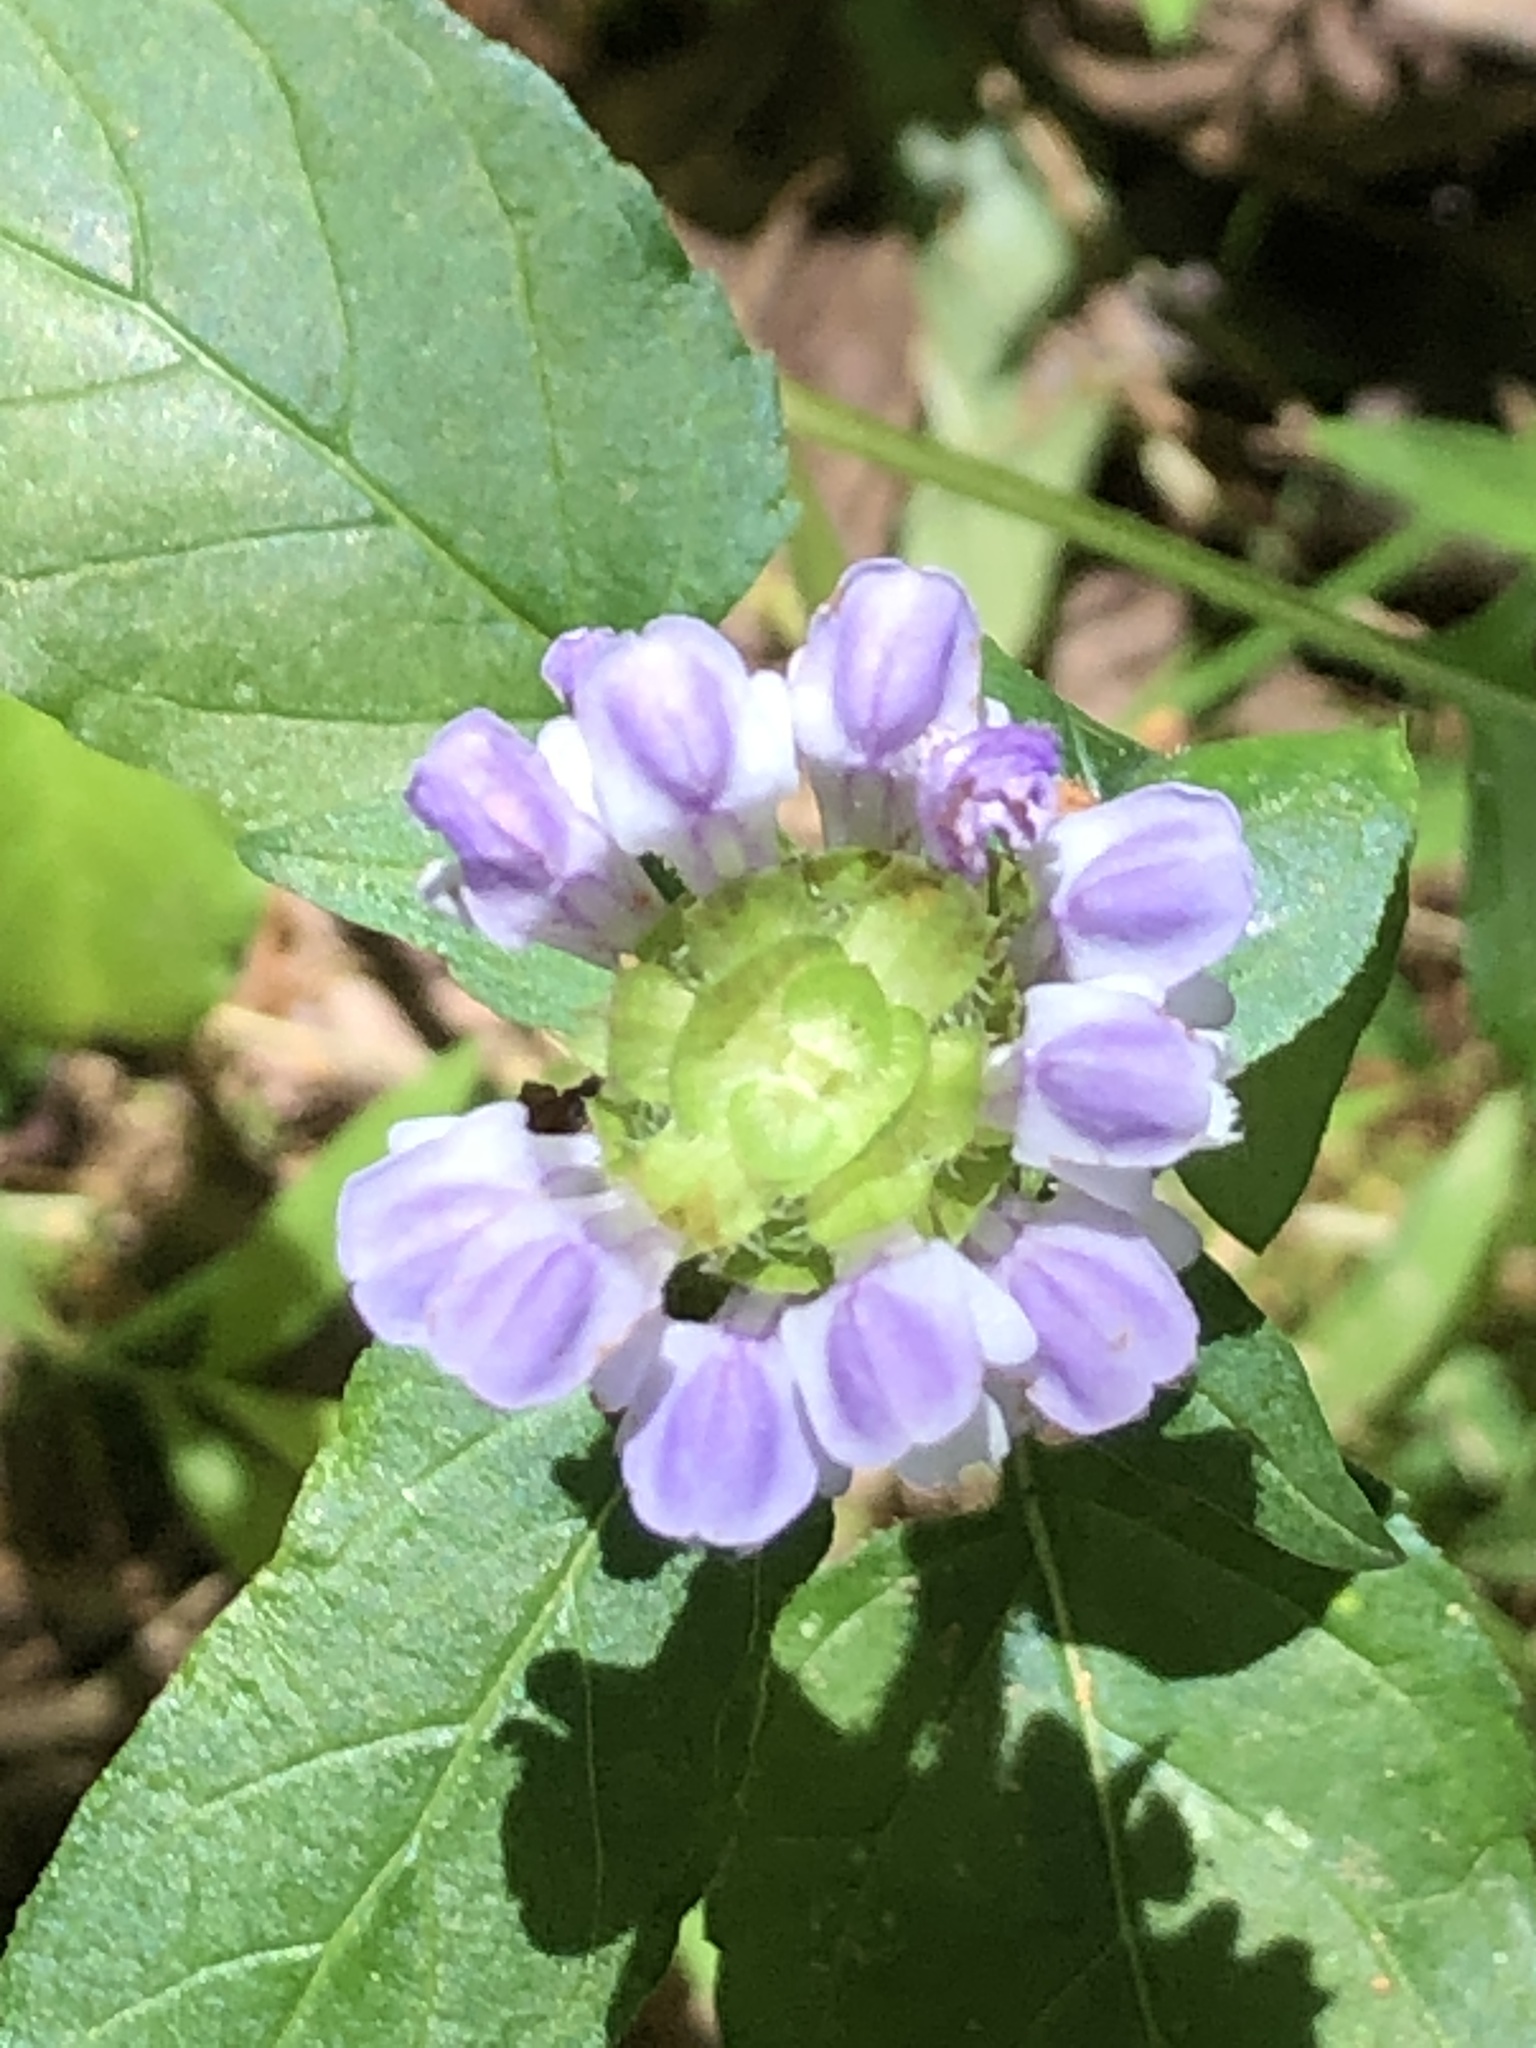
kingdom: Plantae
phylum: Tracheophyta
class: Magnoliopsida
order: Lamiales
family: Lamiaceae
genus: Prunella
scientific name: Prunella vulgaris
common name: Heal-all
